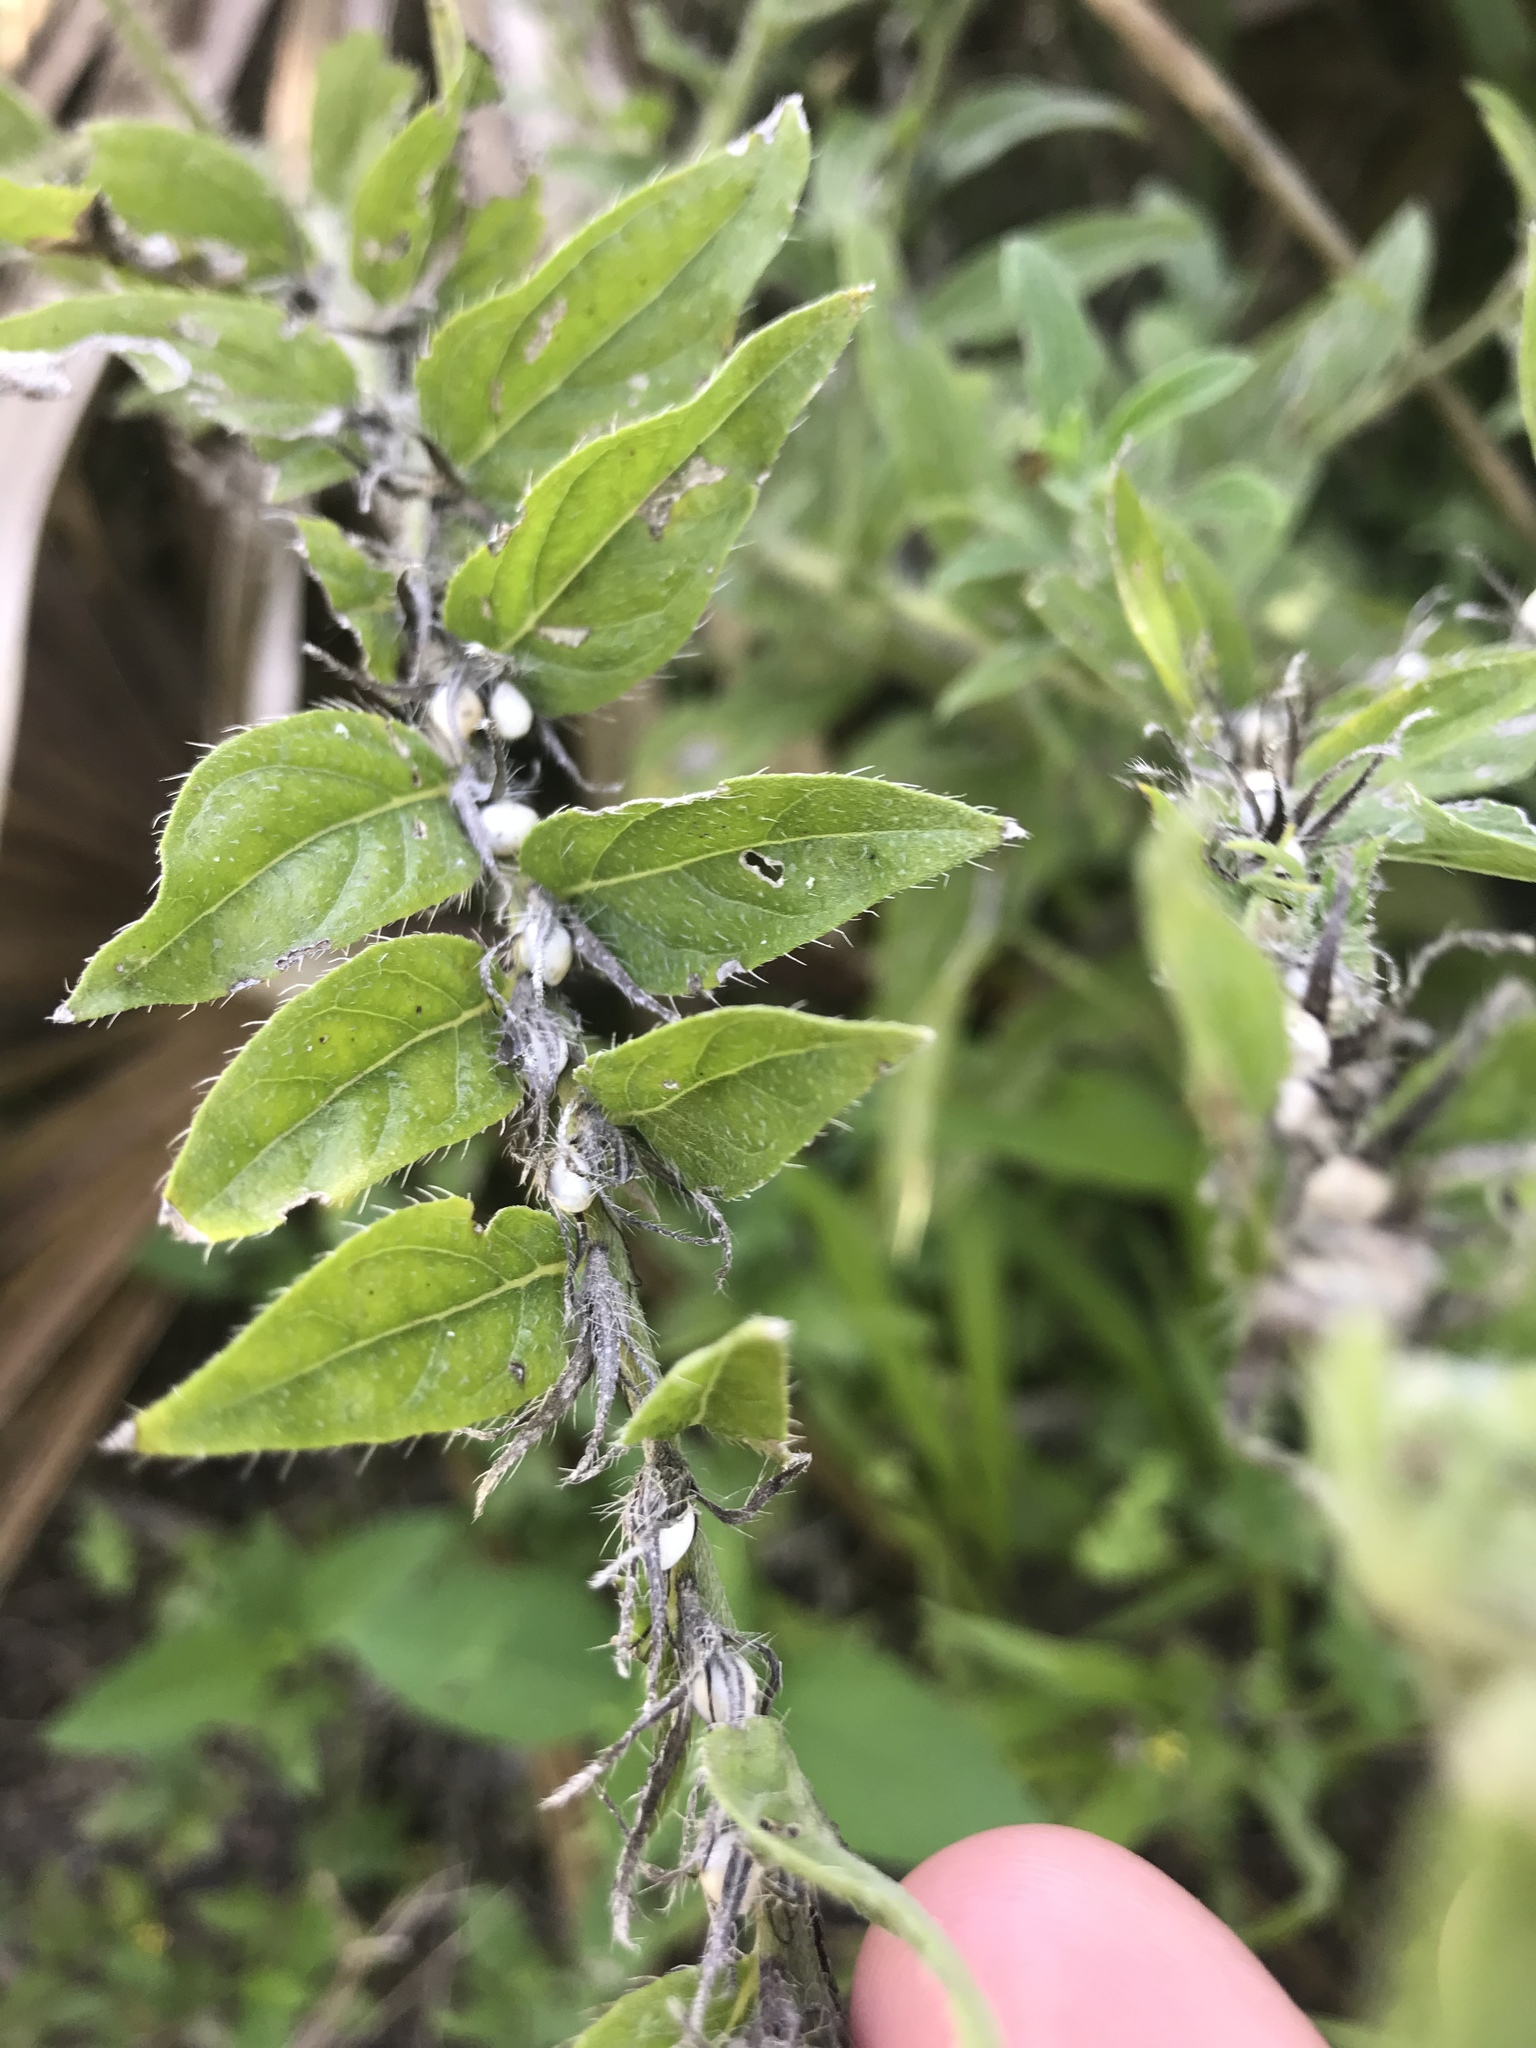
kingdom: Plantae
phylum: Tracheophyta
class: Magnoliopsida
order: Boraginales
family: Boraginaceae
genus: Lithospermum
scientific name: Lithospermum caroliniense
